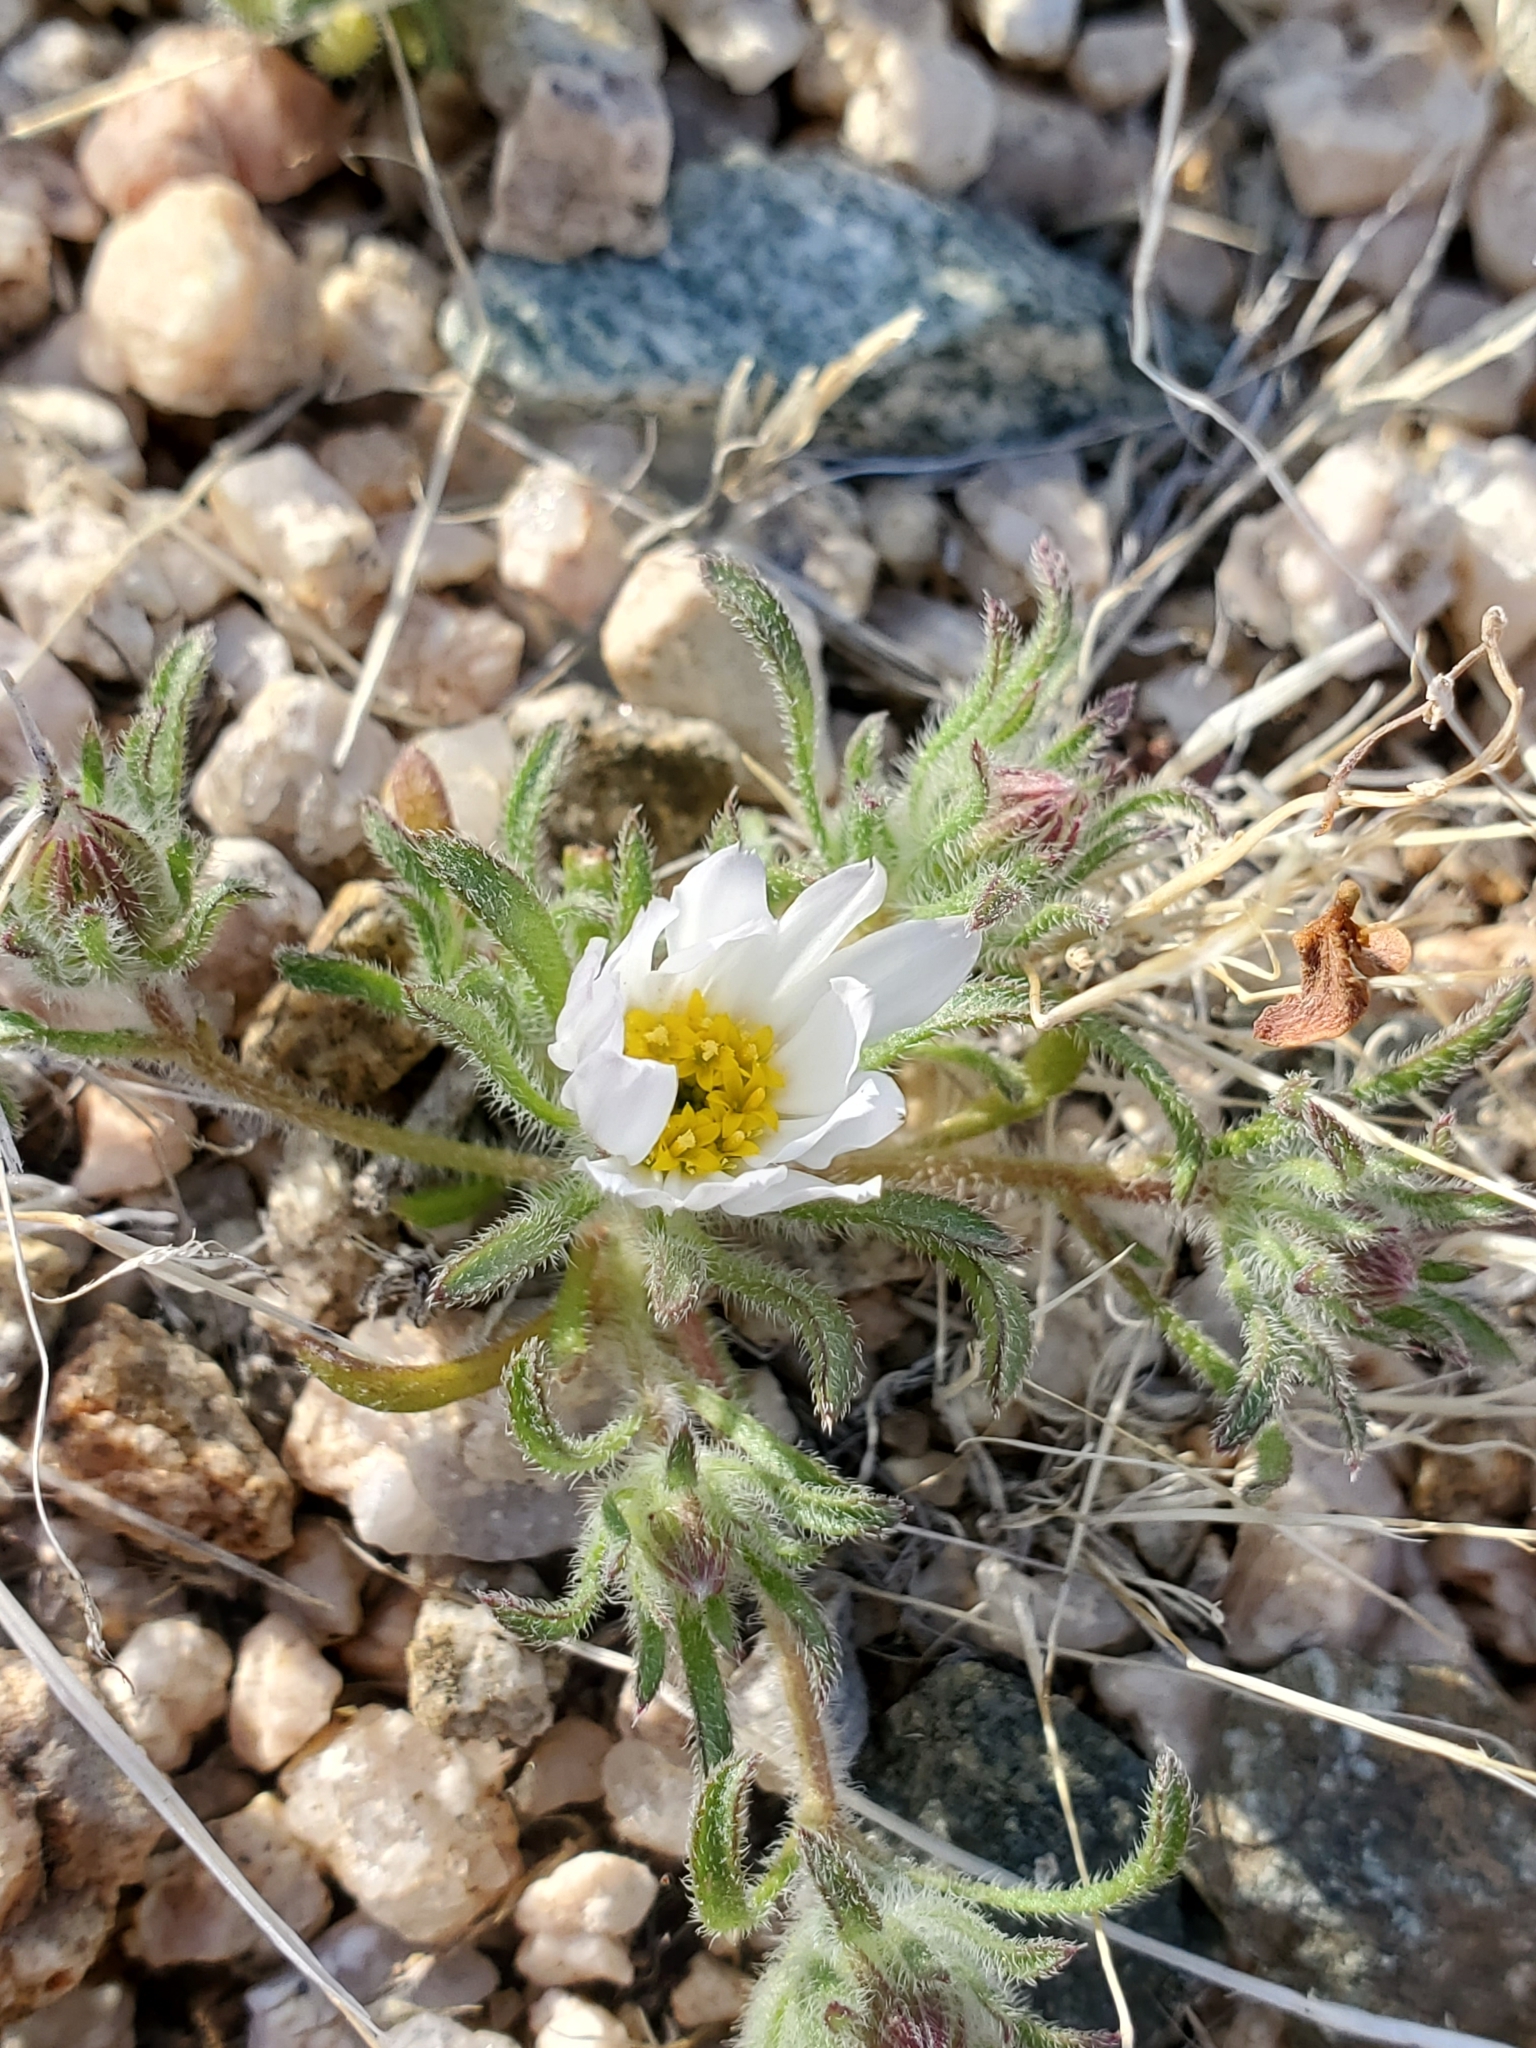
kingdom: Plantae
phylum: Tracheophyta
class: Magnoliopsida
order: Asterales
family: Asteraceae
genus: Monoptilon
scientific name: Monoptilon bellioides
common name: Bristly desertstar
